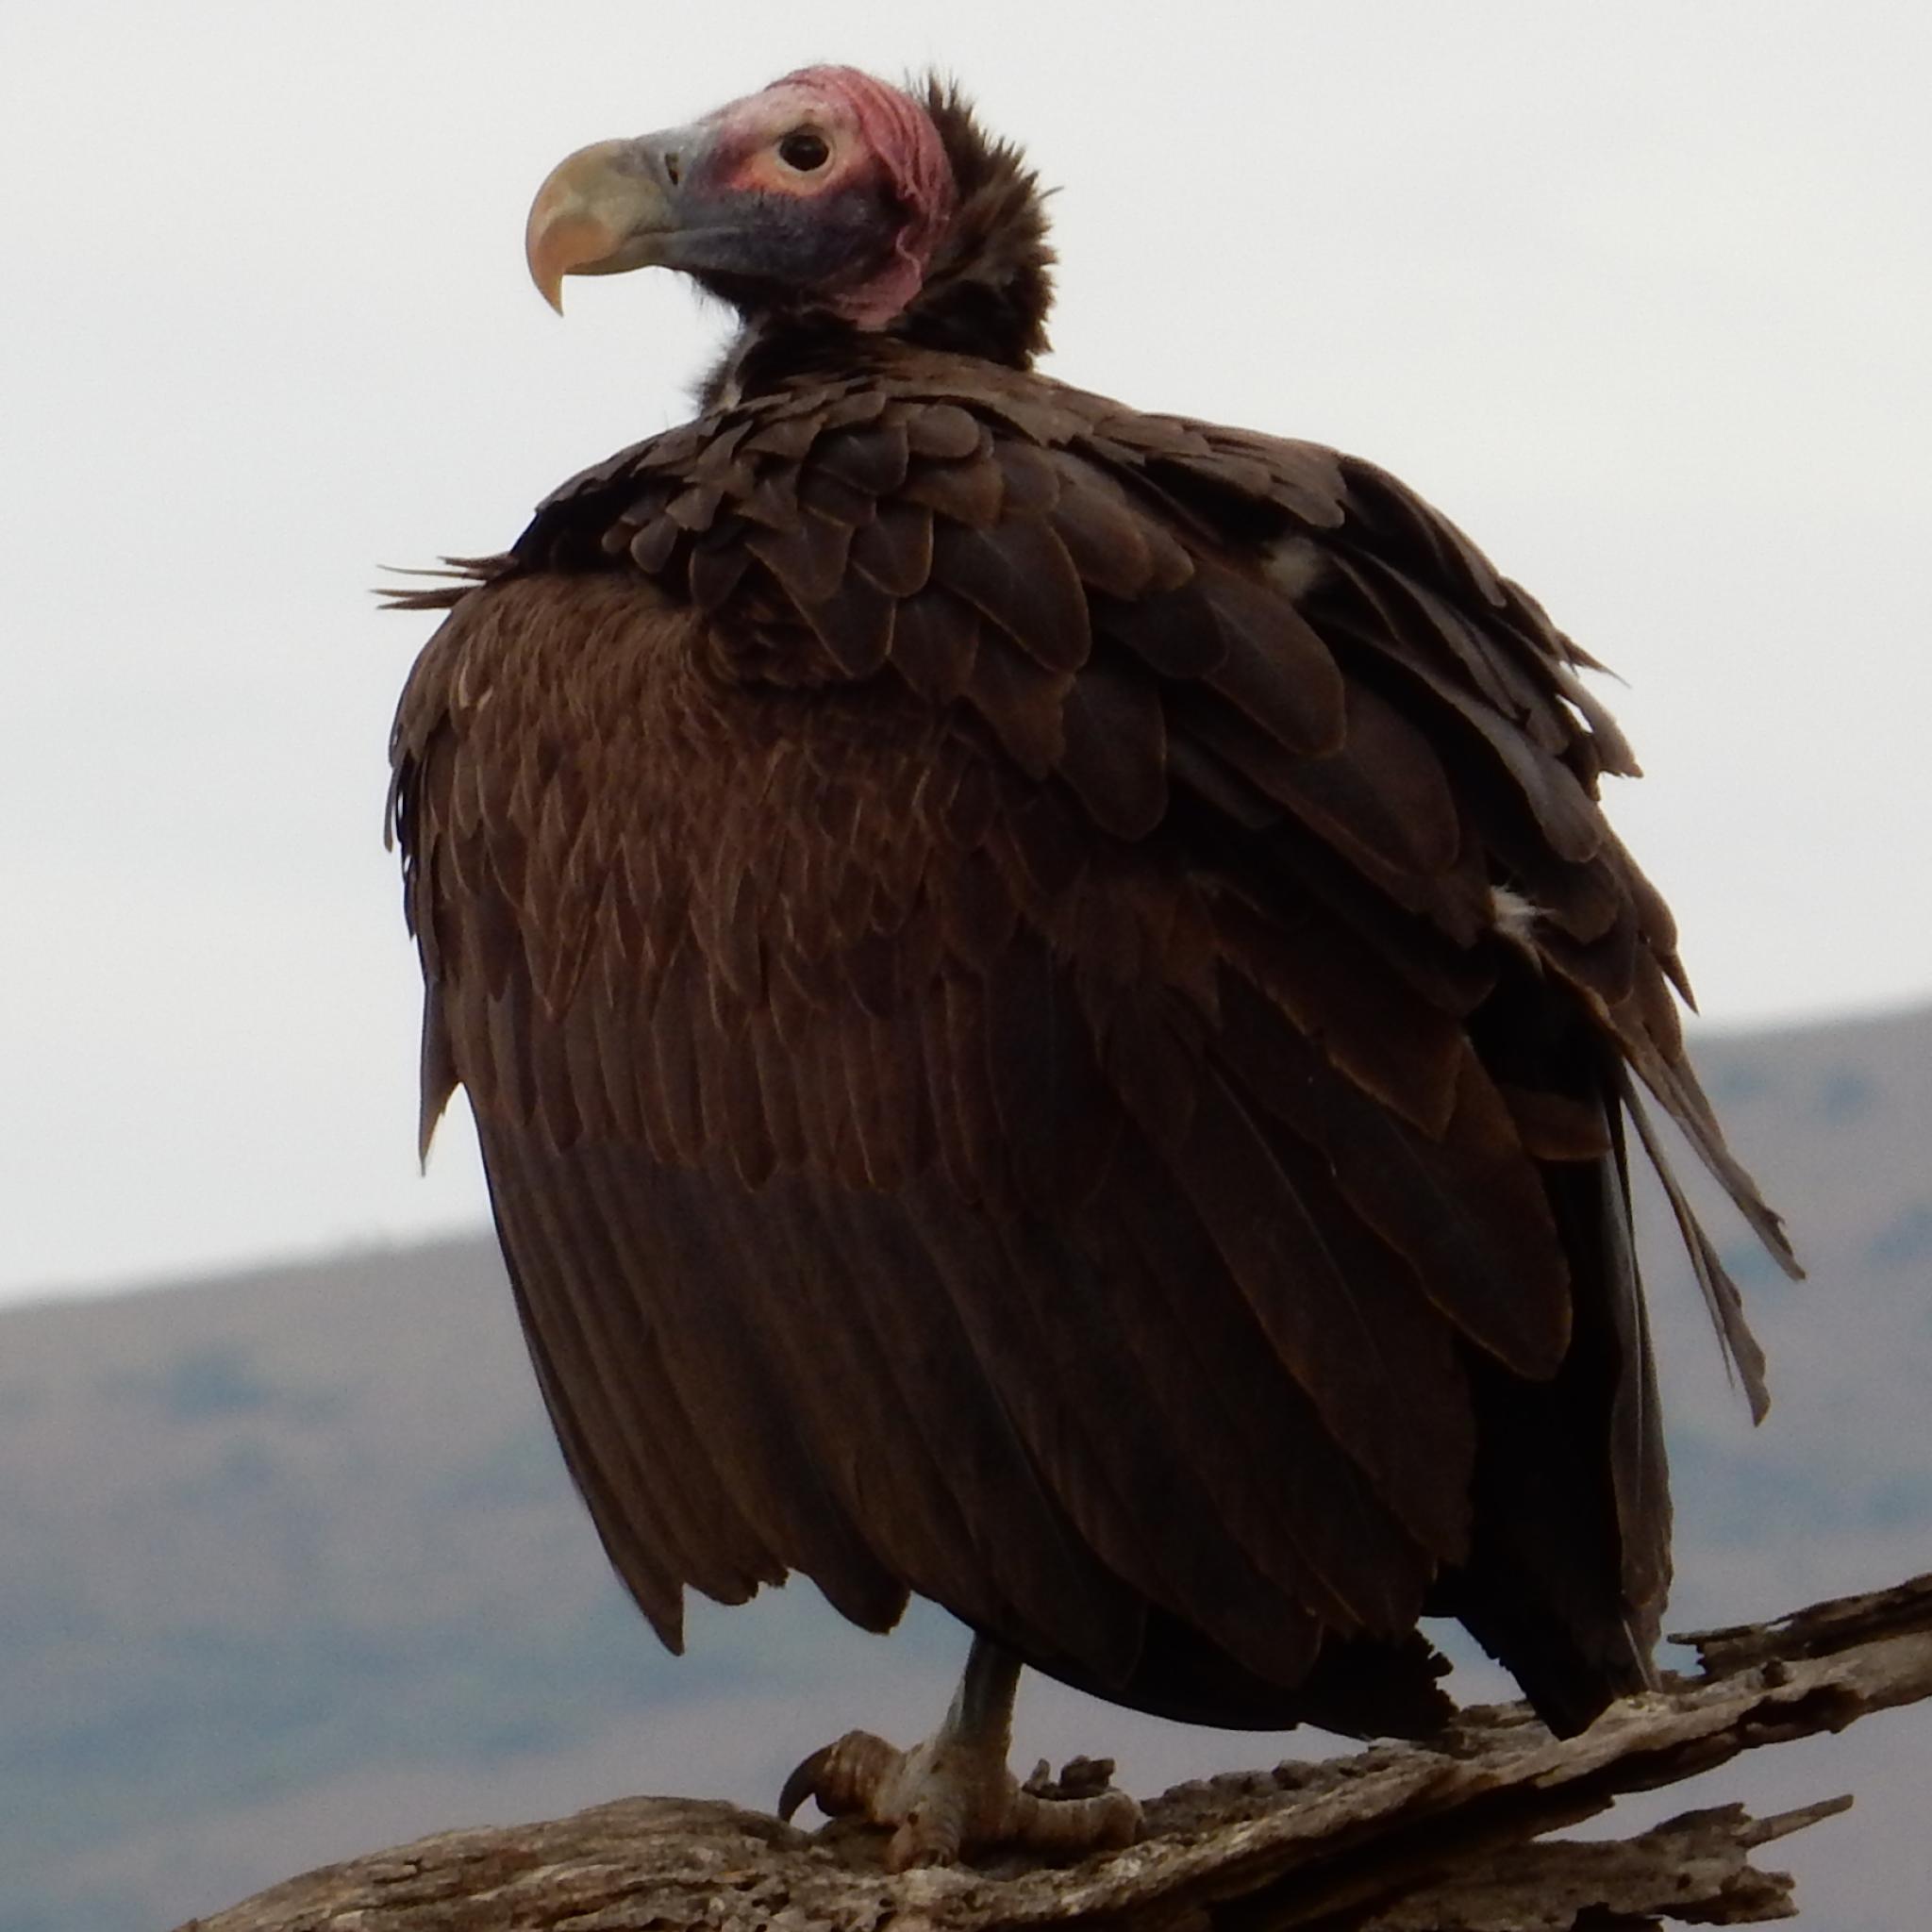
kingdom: Animalia
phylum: Chordata
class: Aves
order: Accipitriformes
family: Accipitridae
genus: Torgos
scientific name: Torgos tracheliotos
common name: Lappet-faced vulture
